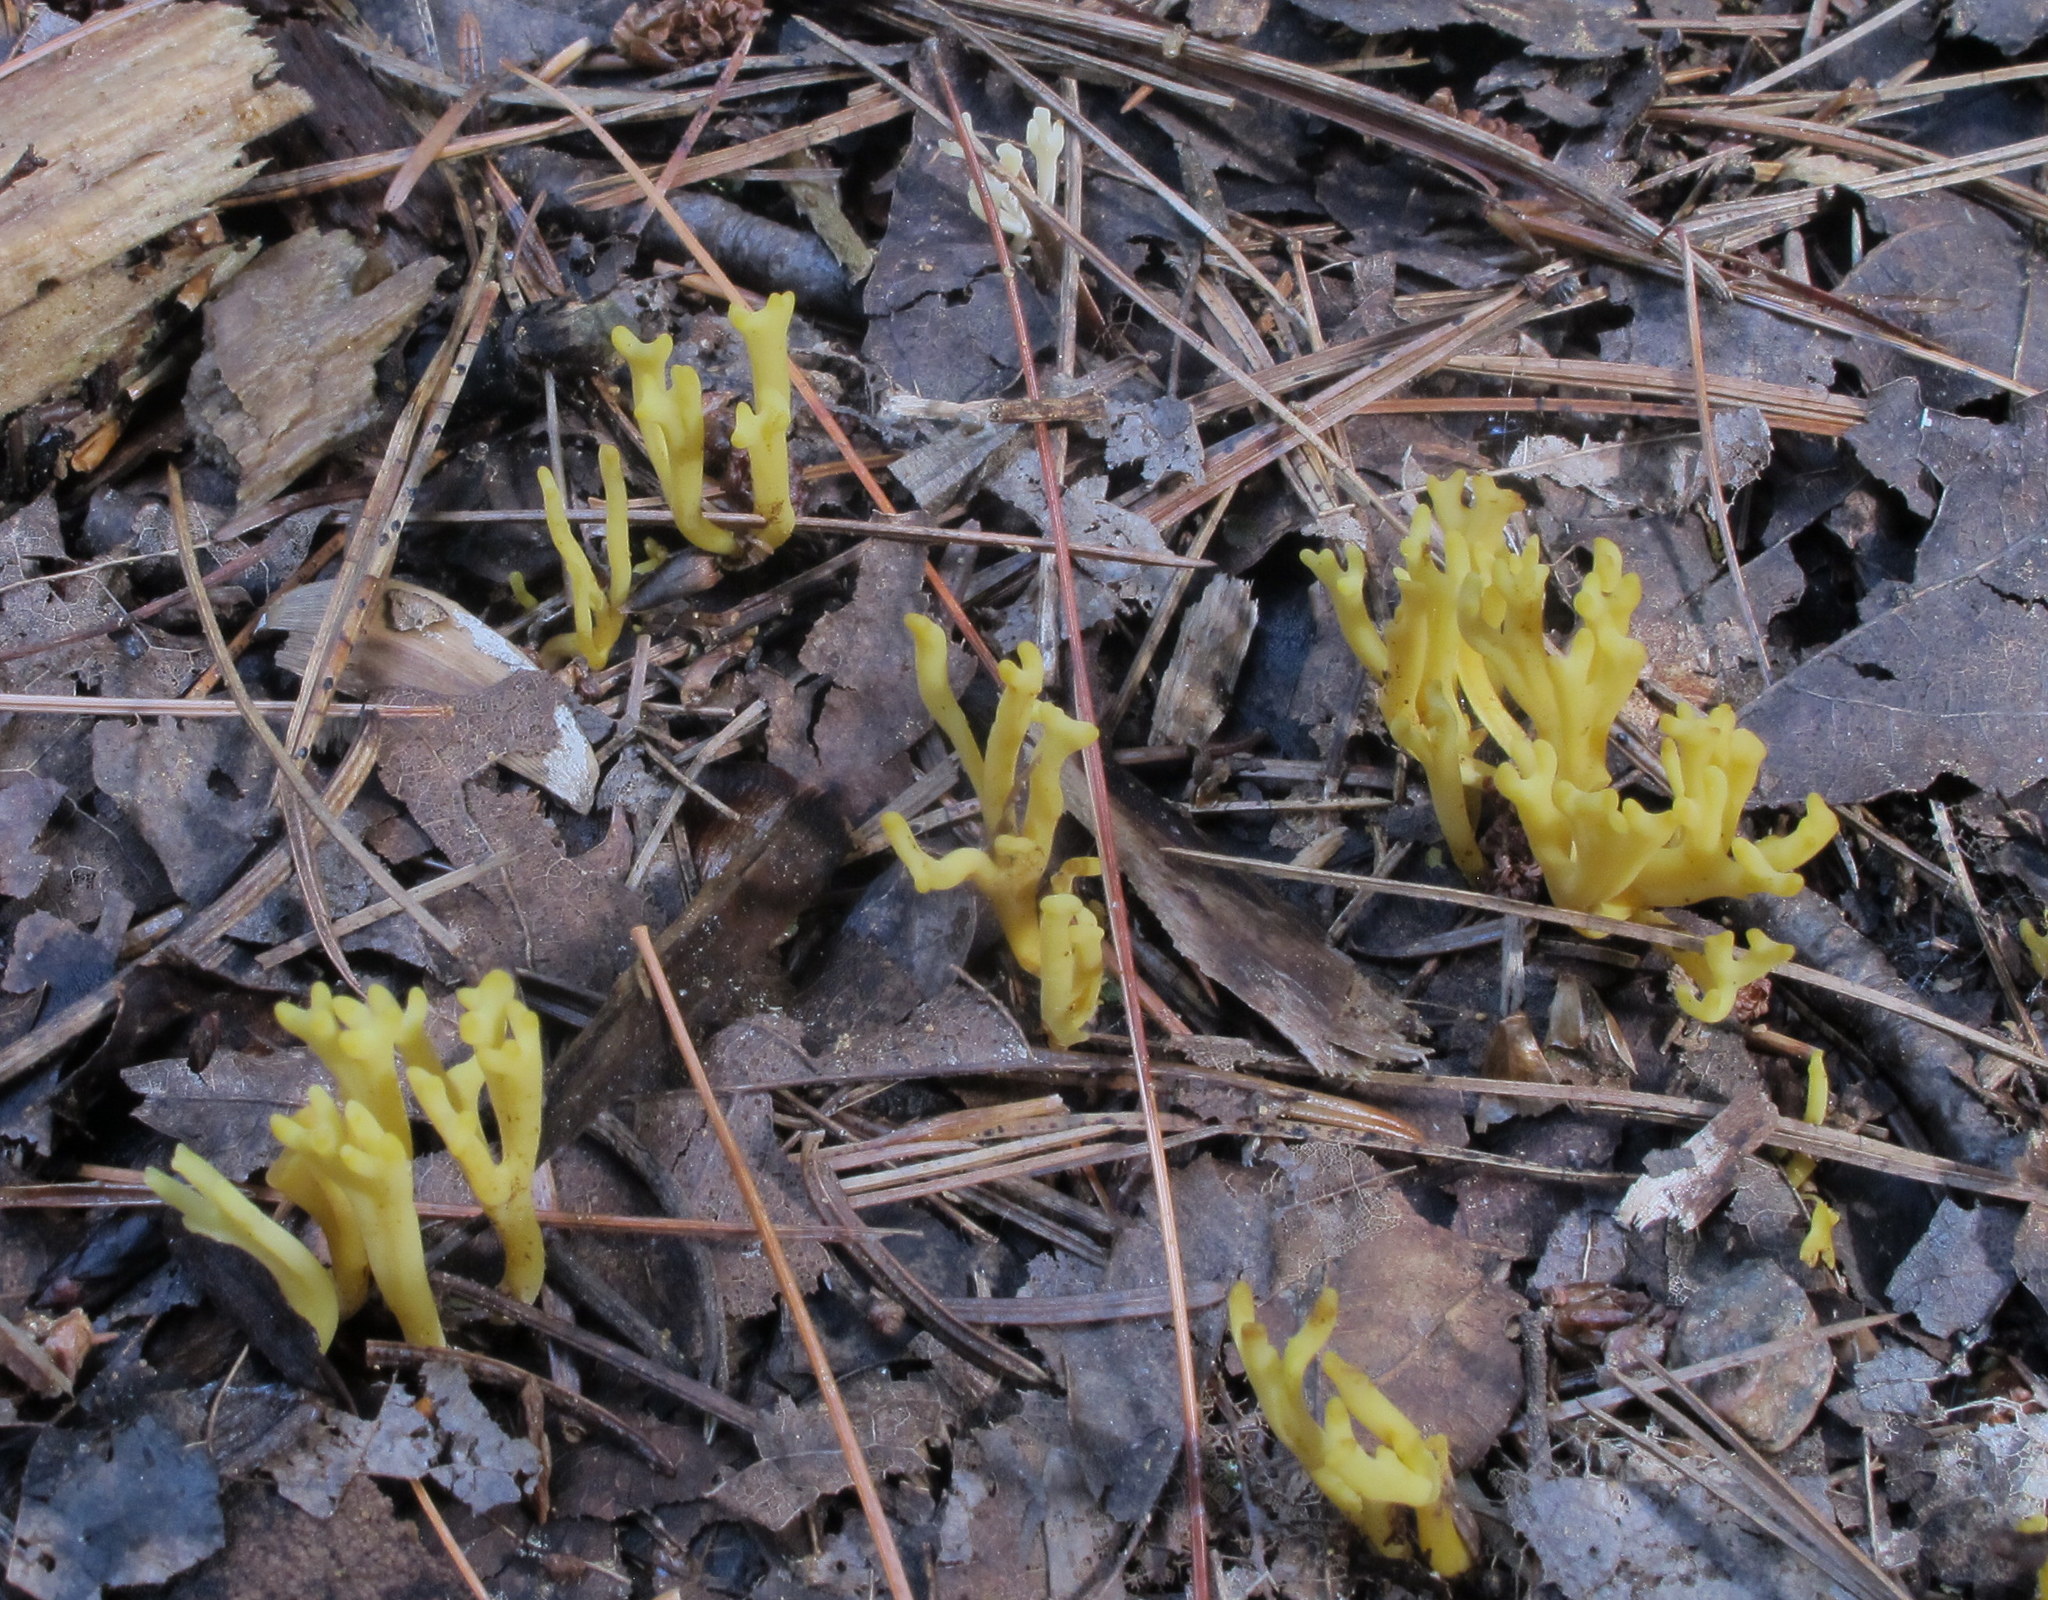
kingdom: Fungi
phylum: Basidiomycota
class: Agaricomycetes
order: Agaricales
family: Clavariaceae
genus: Clavulinopsis
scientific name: Clavulinopsis corniculata
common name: Meadow coral
